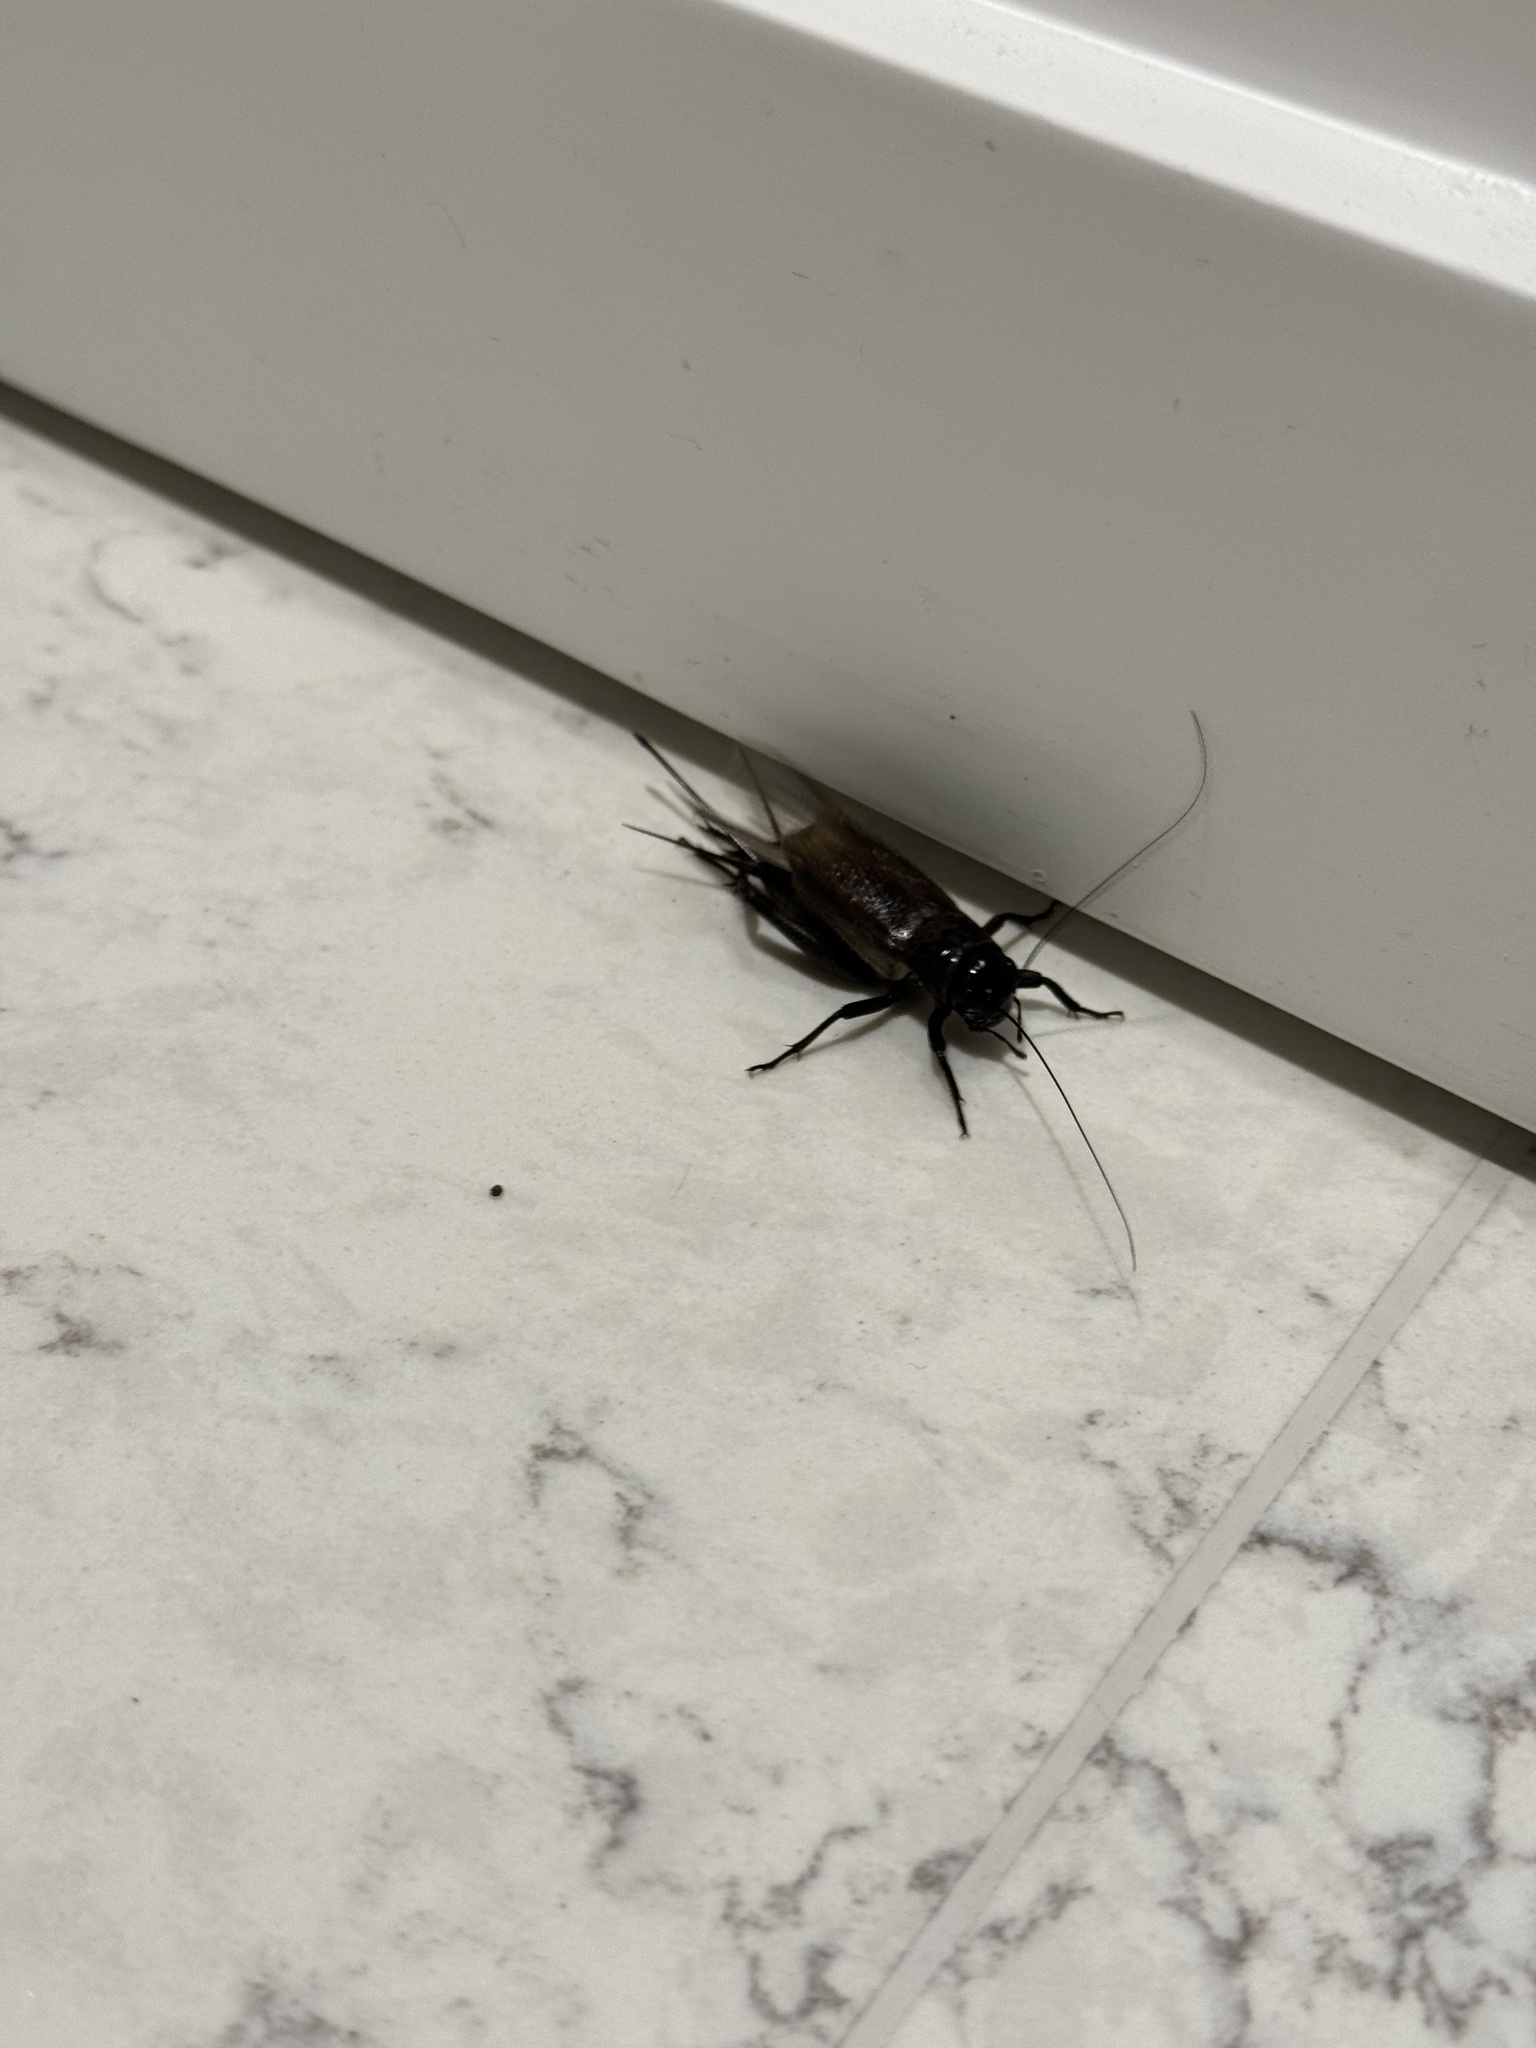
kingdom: Animalia
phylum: Arthropoda
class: Insecta
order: Orthoptera
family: Gryllidae
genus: Teleogryllus
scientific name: Teleogryllus commodus
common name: Black field cricket
